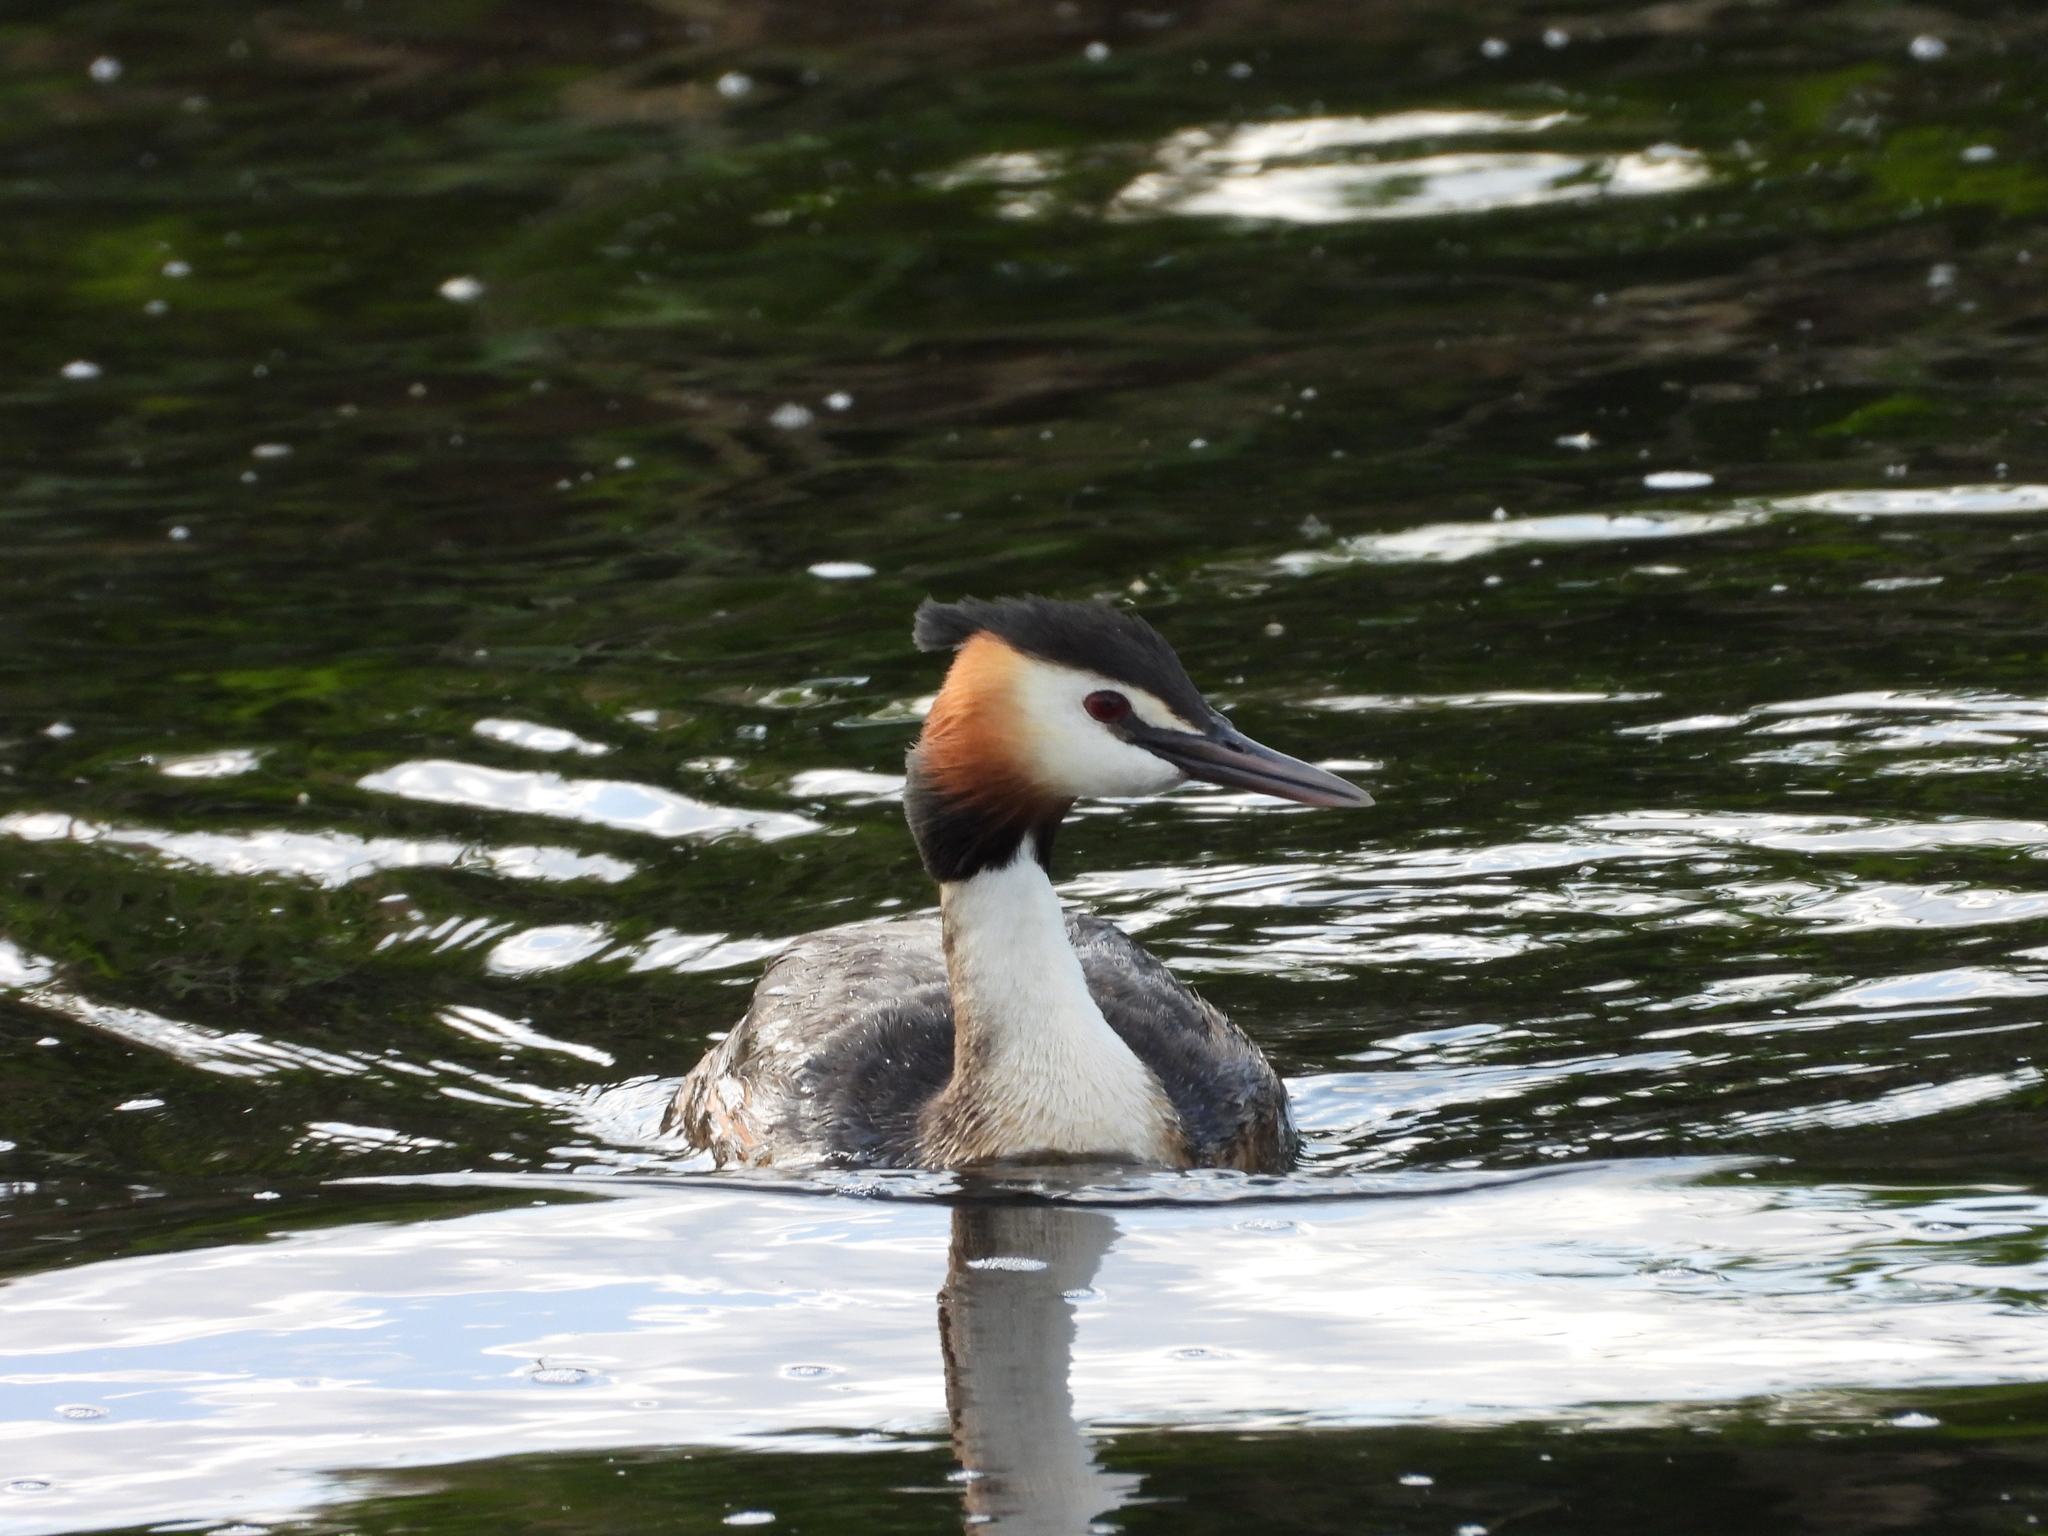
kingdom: Animalia
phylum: Chordata
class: Aves
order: Podicipediformes
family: Podicipedidae
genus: Podiceps
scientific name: Podiceps cristatus
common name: Great crested grebe
